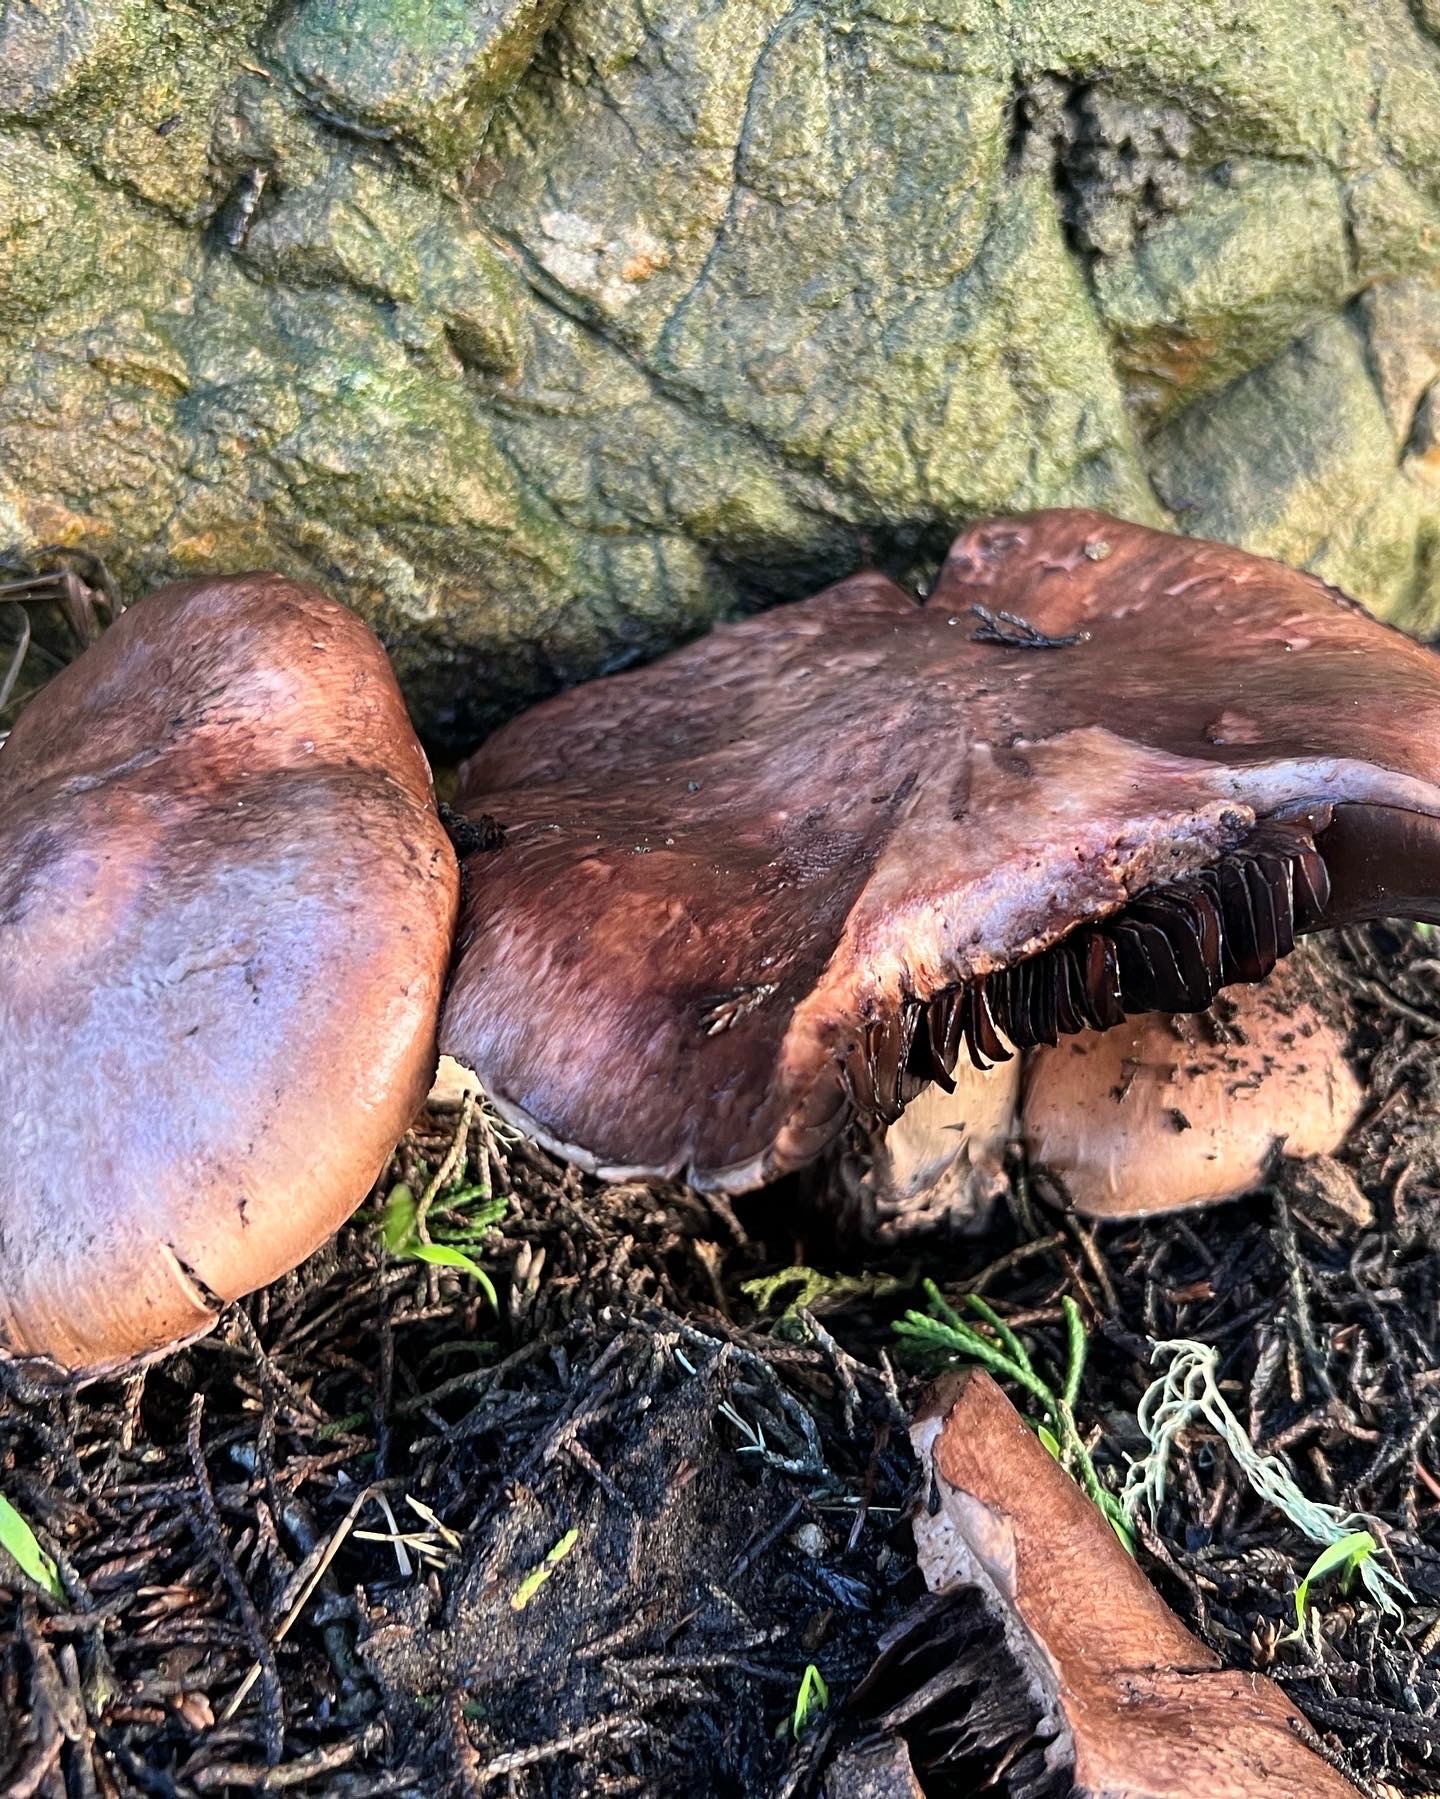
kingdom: Fungi
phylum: Basidiomycota
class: Agaricomycetes
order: Agaricales
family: Agaricaceae
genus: Agaricus
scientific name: Agaricus brunneofibrillosus
